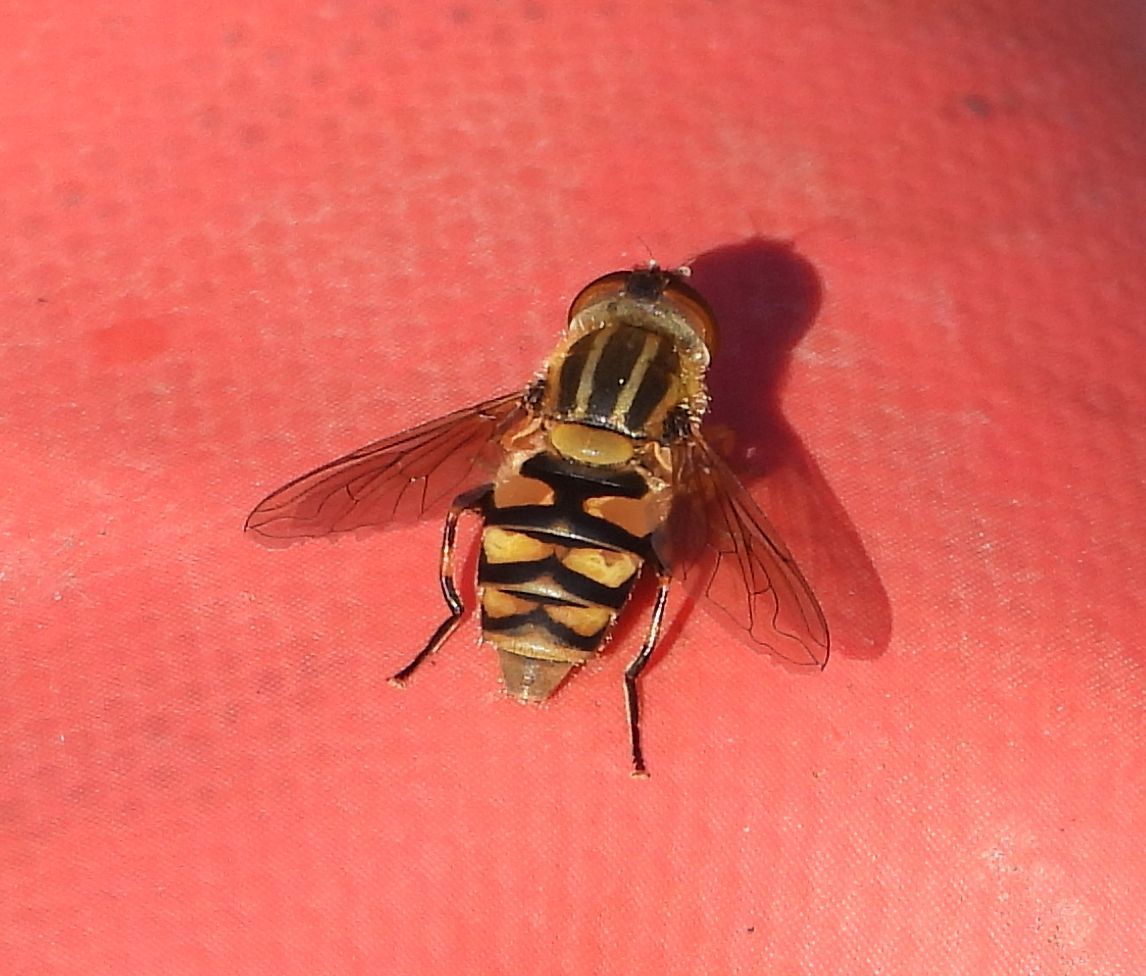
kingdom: Animalia
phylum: Arthropoda
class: Insecta
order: Diptera
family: Syrphidae
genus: Parhelophilus
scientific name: Parhelophilus integer
